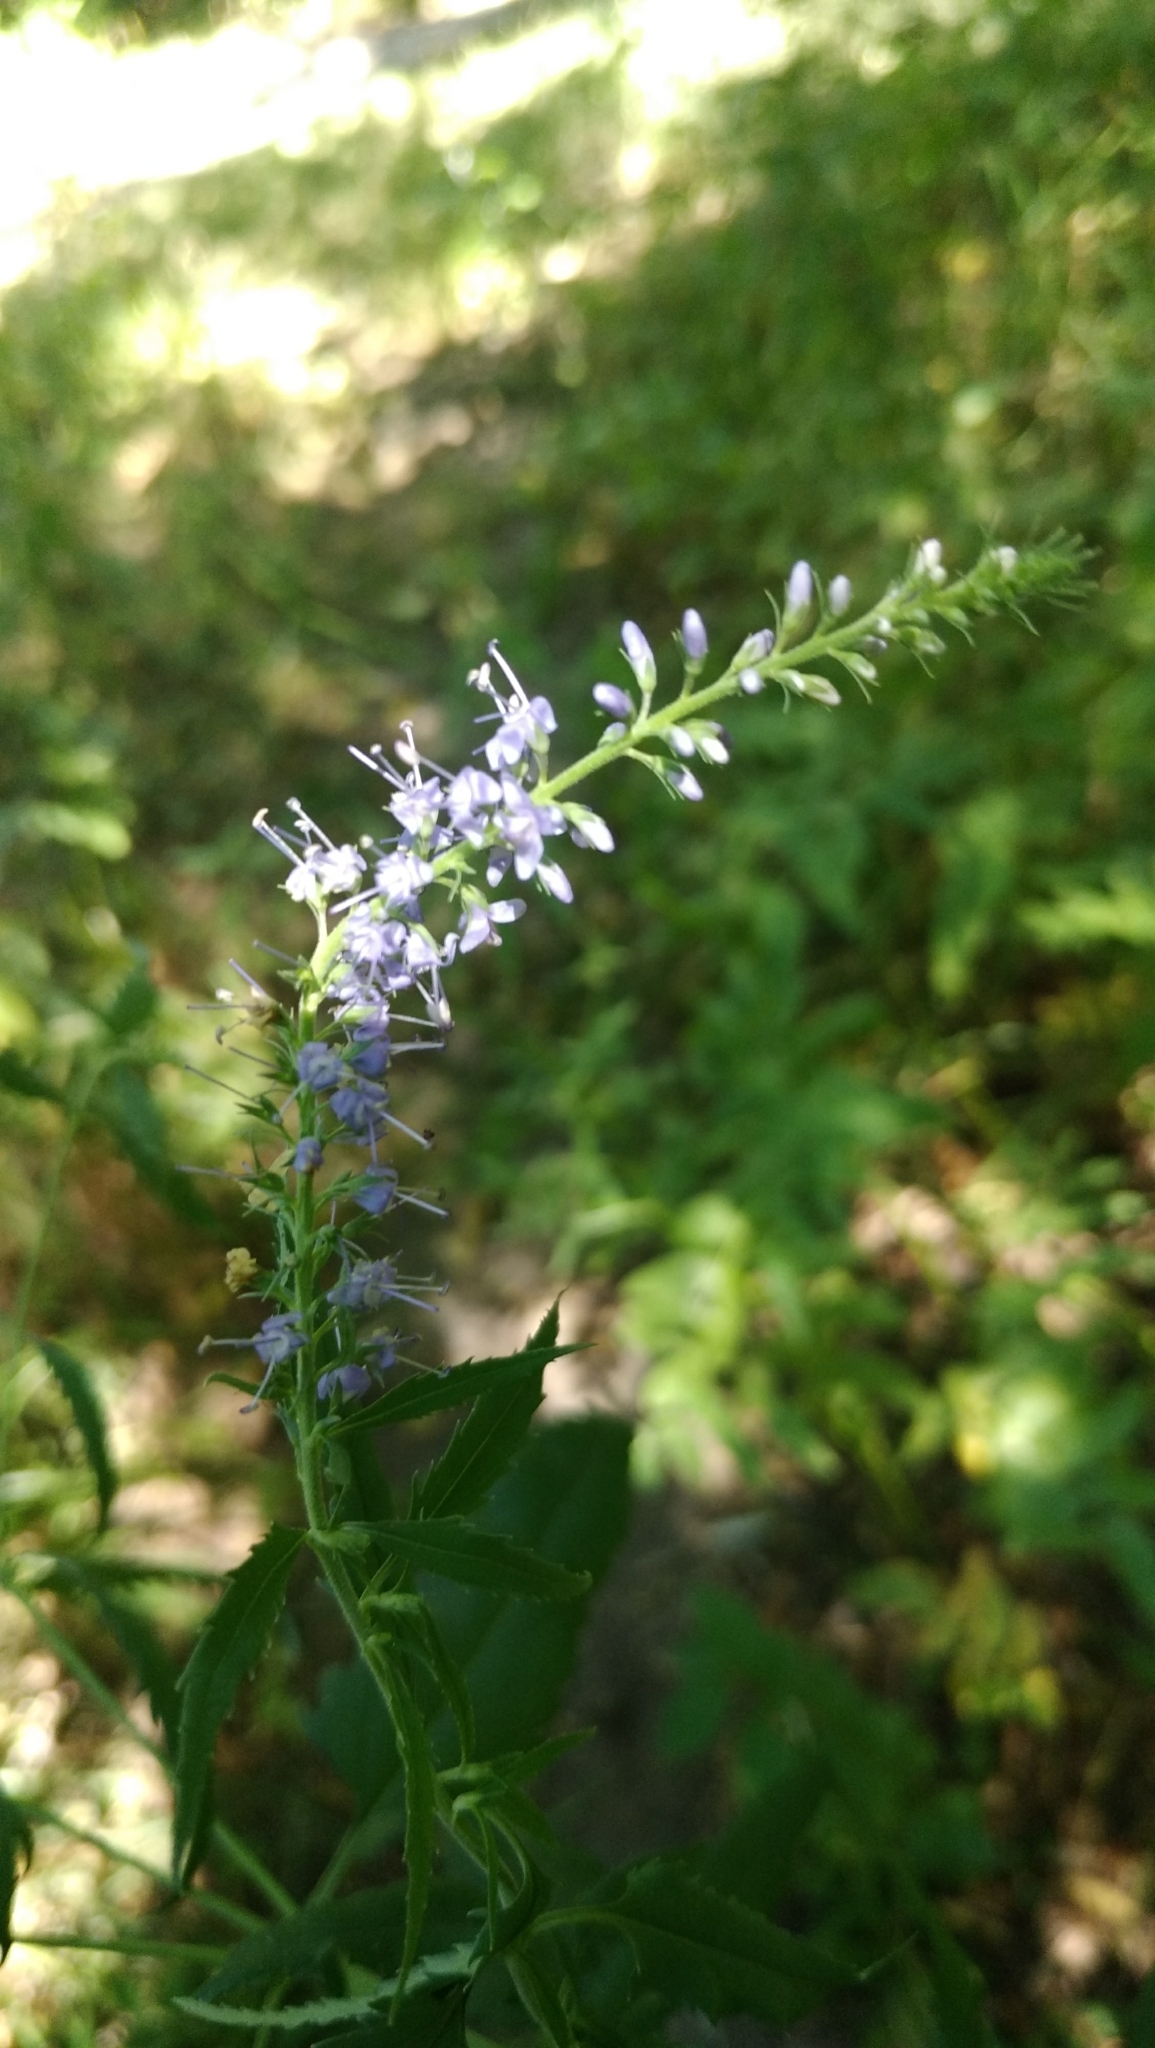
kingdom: Plantae
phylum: Tracheophyta
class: Magnoliopsida
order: Lamiales
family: Plantaginaceae
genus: Veronica
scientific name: Veronica longifolia
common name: Garden speedwell
